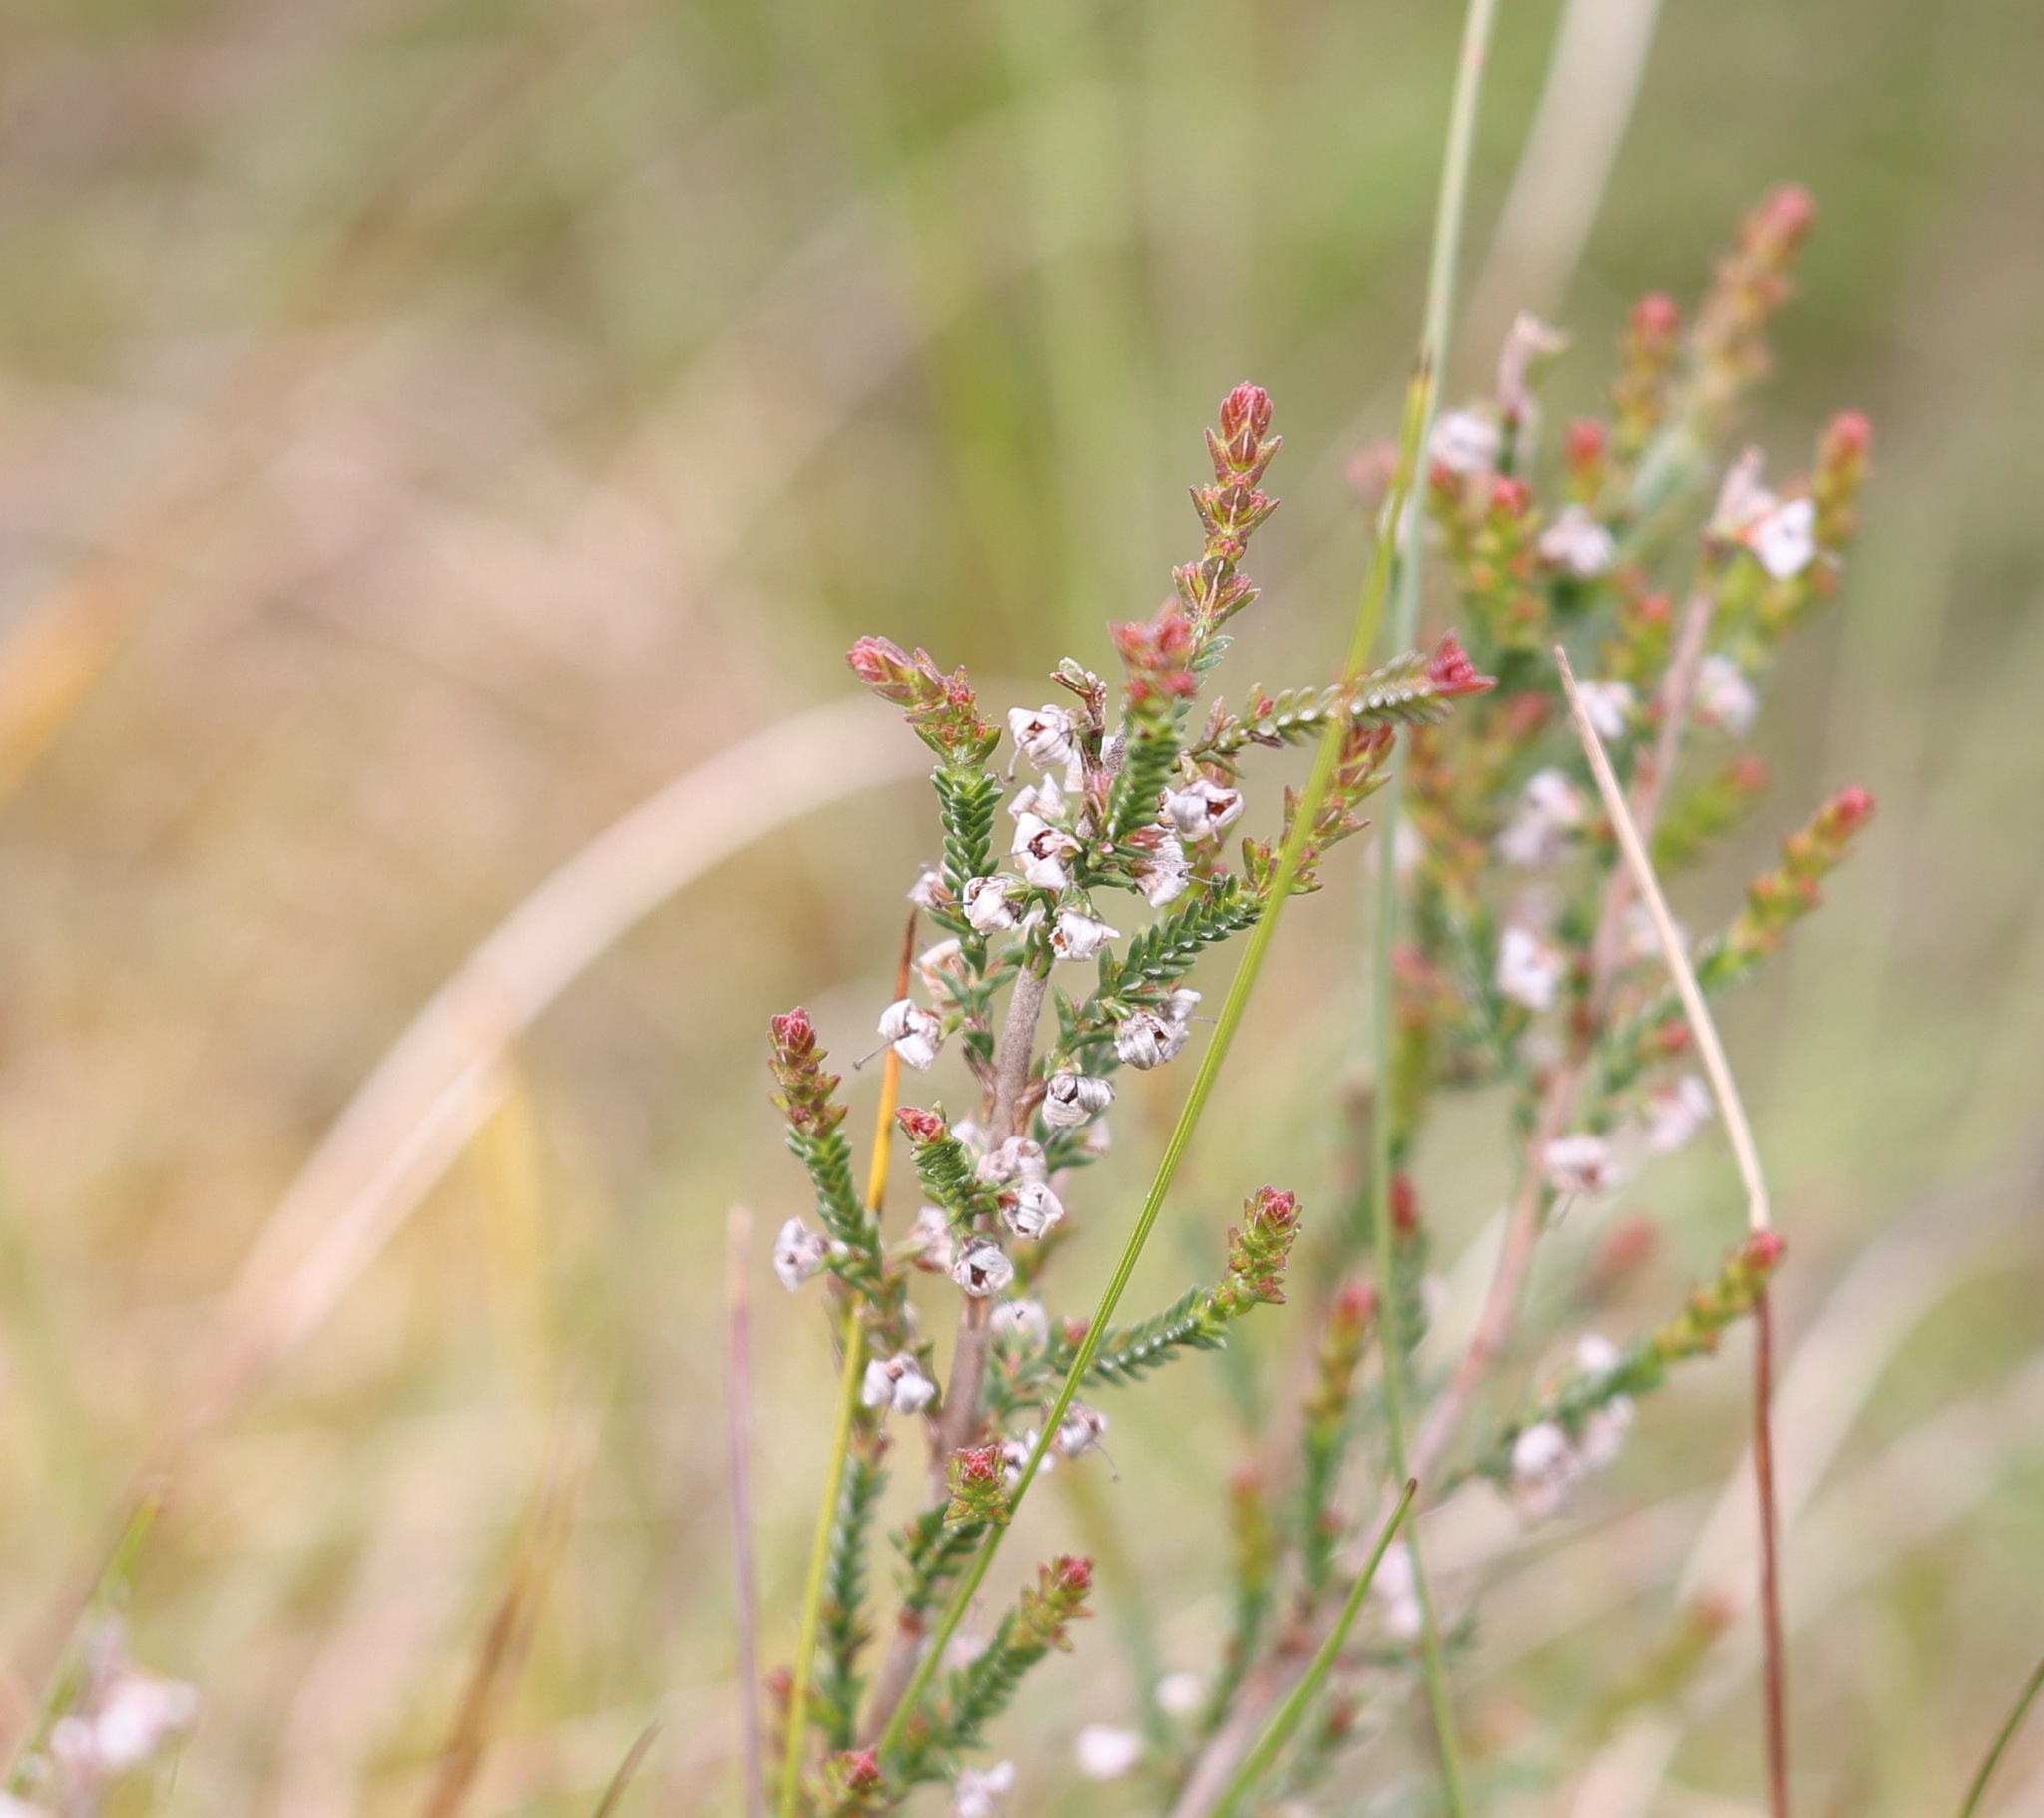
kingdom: Plantae
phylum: Tracheophyta
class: Magnoliopsida
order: Ericales
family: Ericaceae
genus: Calluna
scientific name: Calluna vulgaris
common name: Heather
